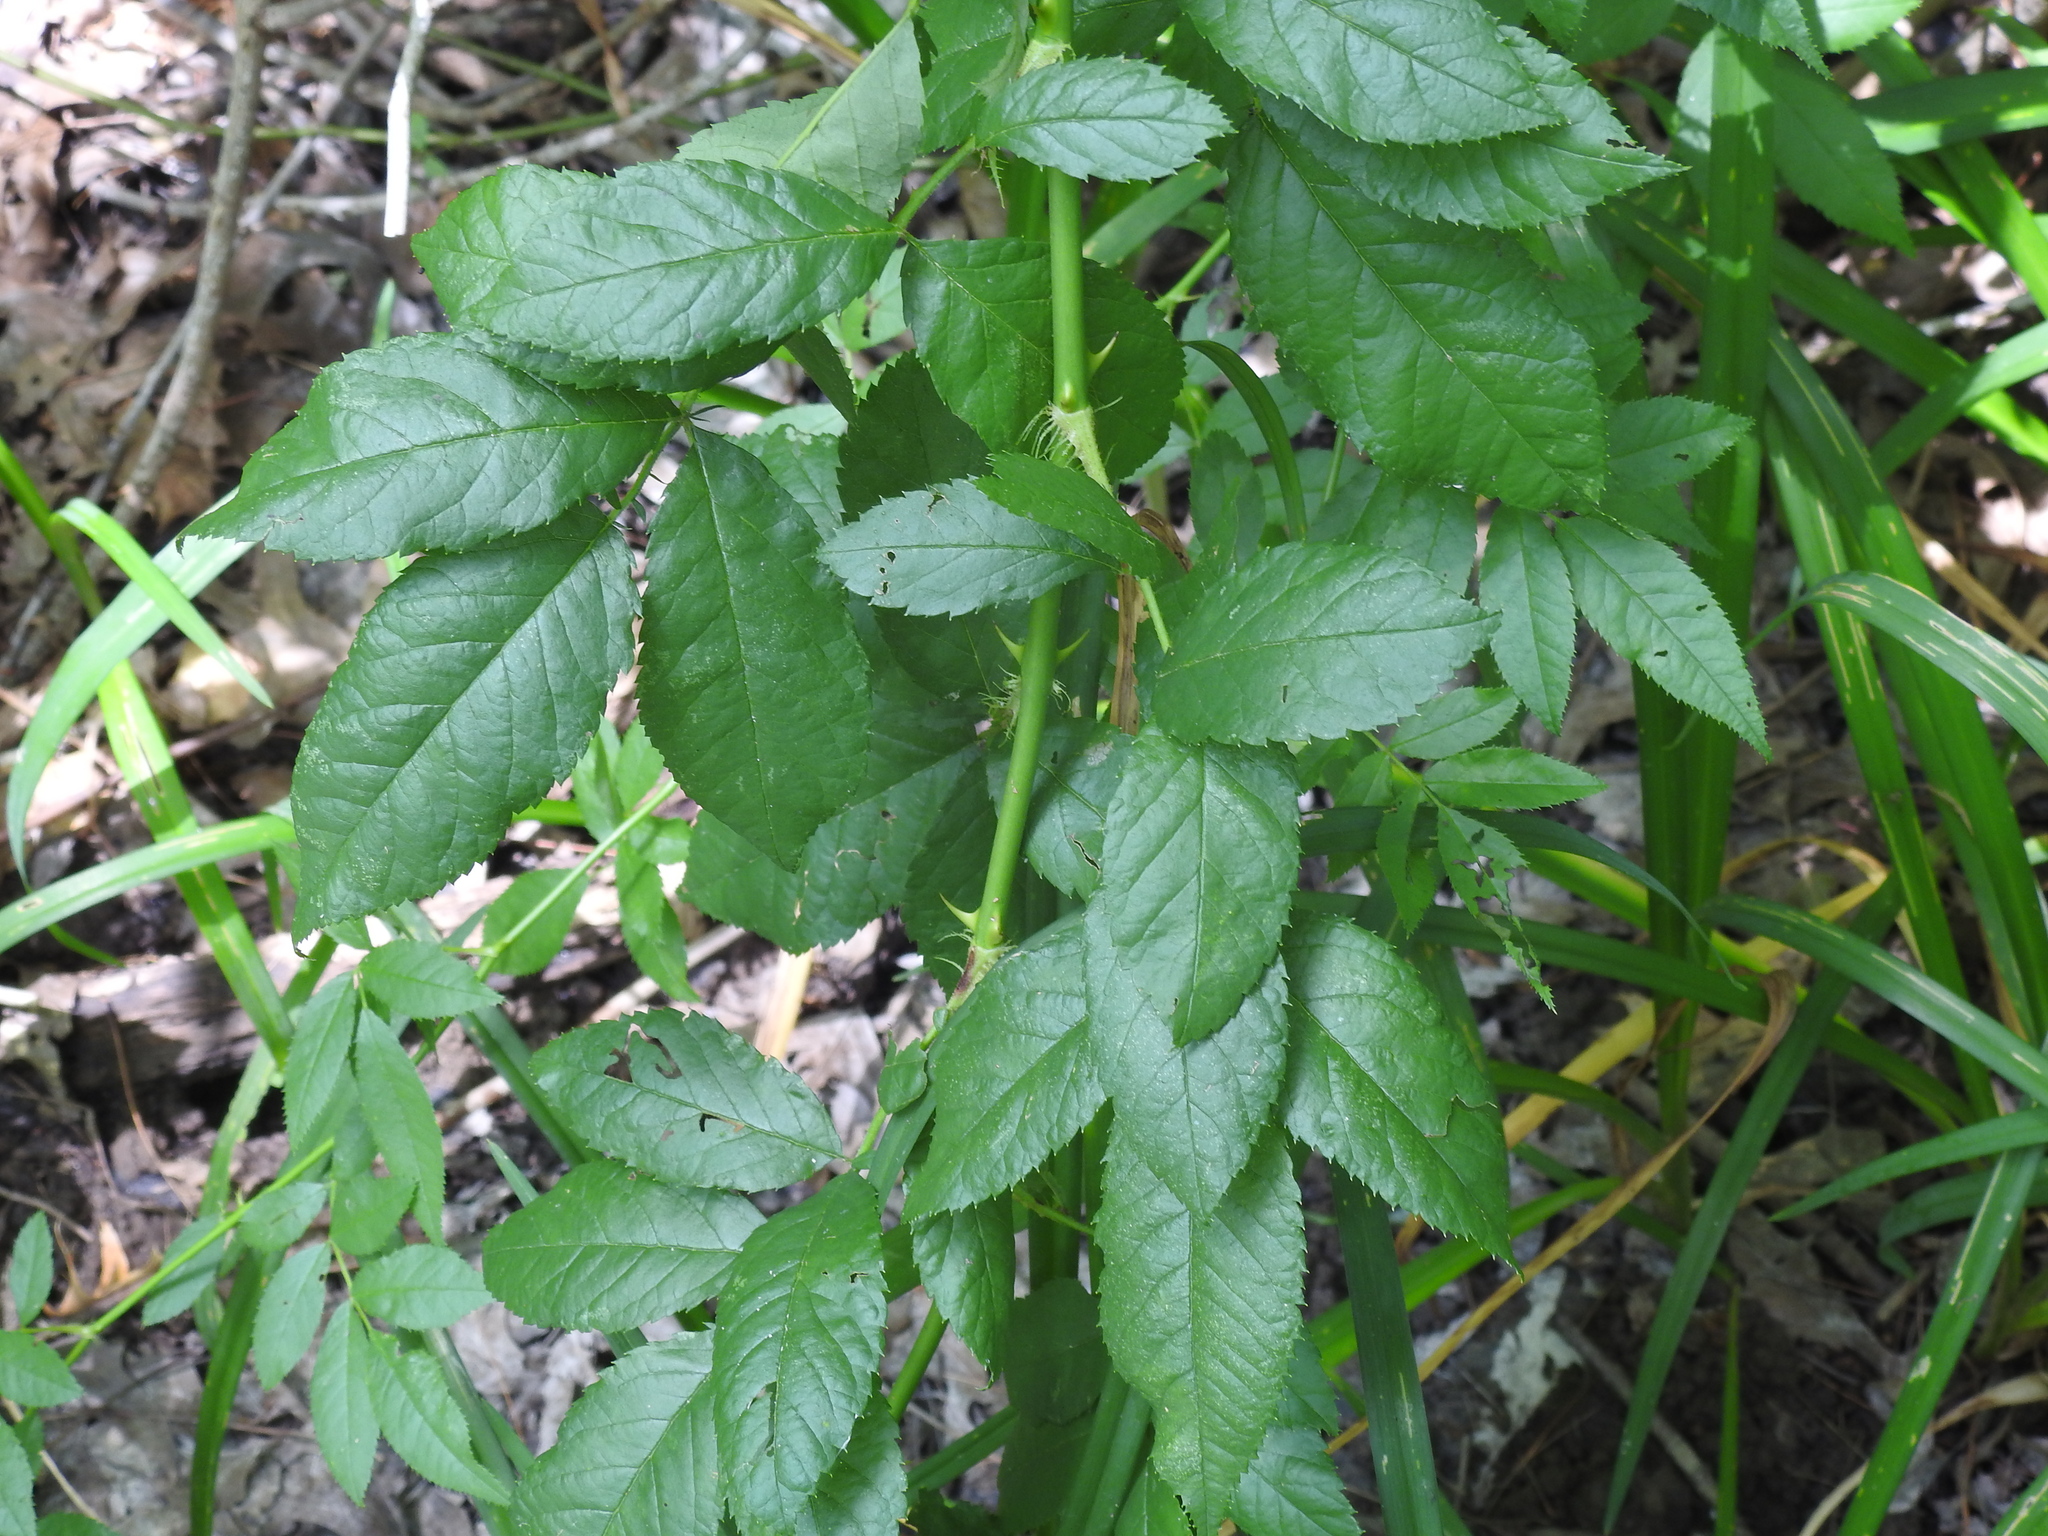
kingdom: Plantae
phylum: Tracheophyta
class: Magnoliopsida
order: Rosales
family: Rosaceae
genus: Rosa
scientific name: Rosa multiflora
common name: Multiflora rose
